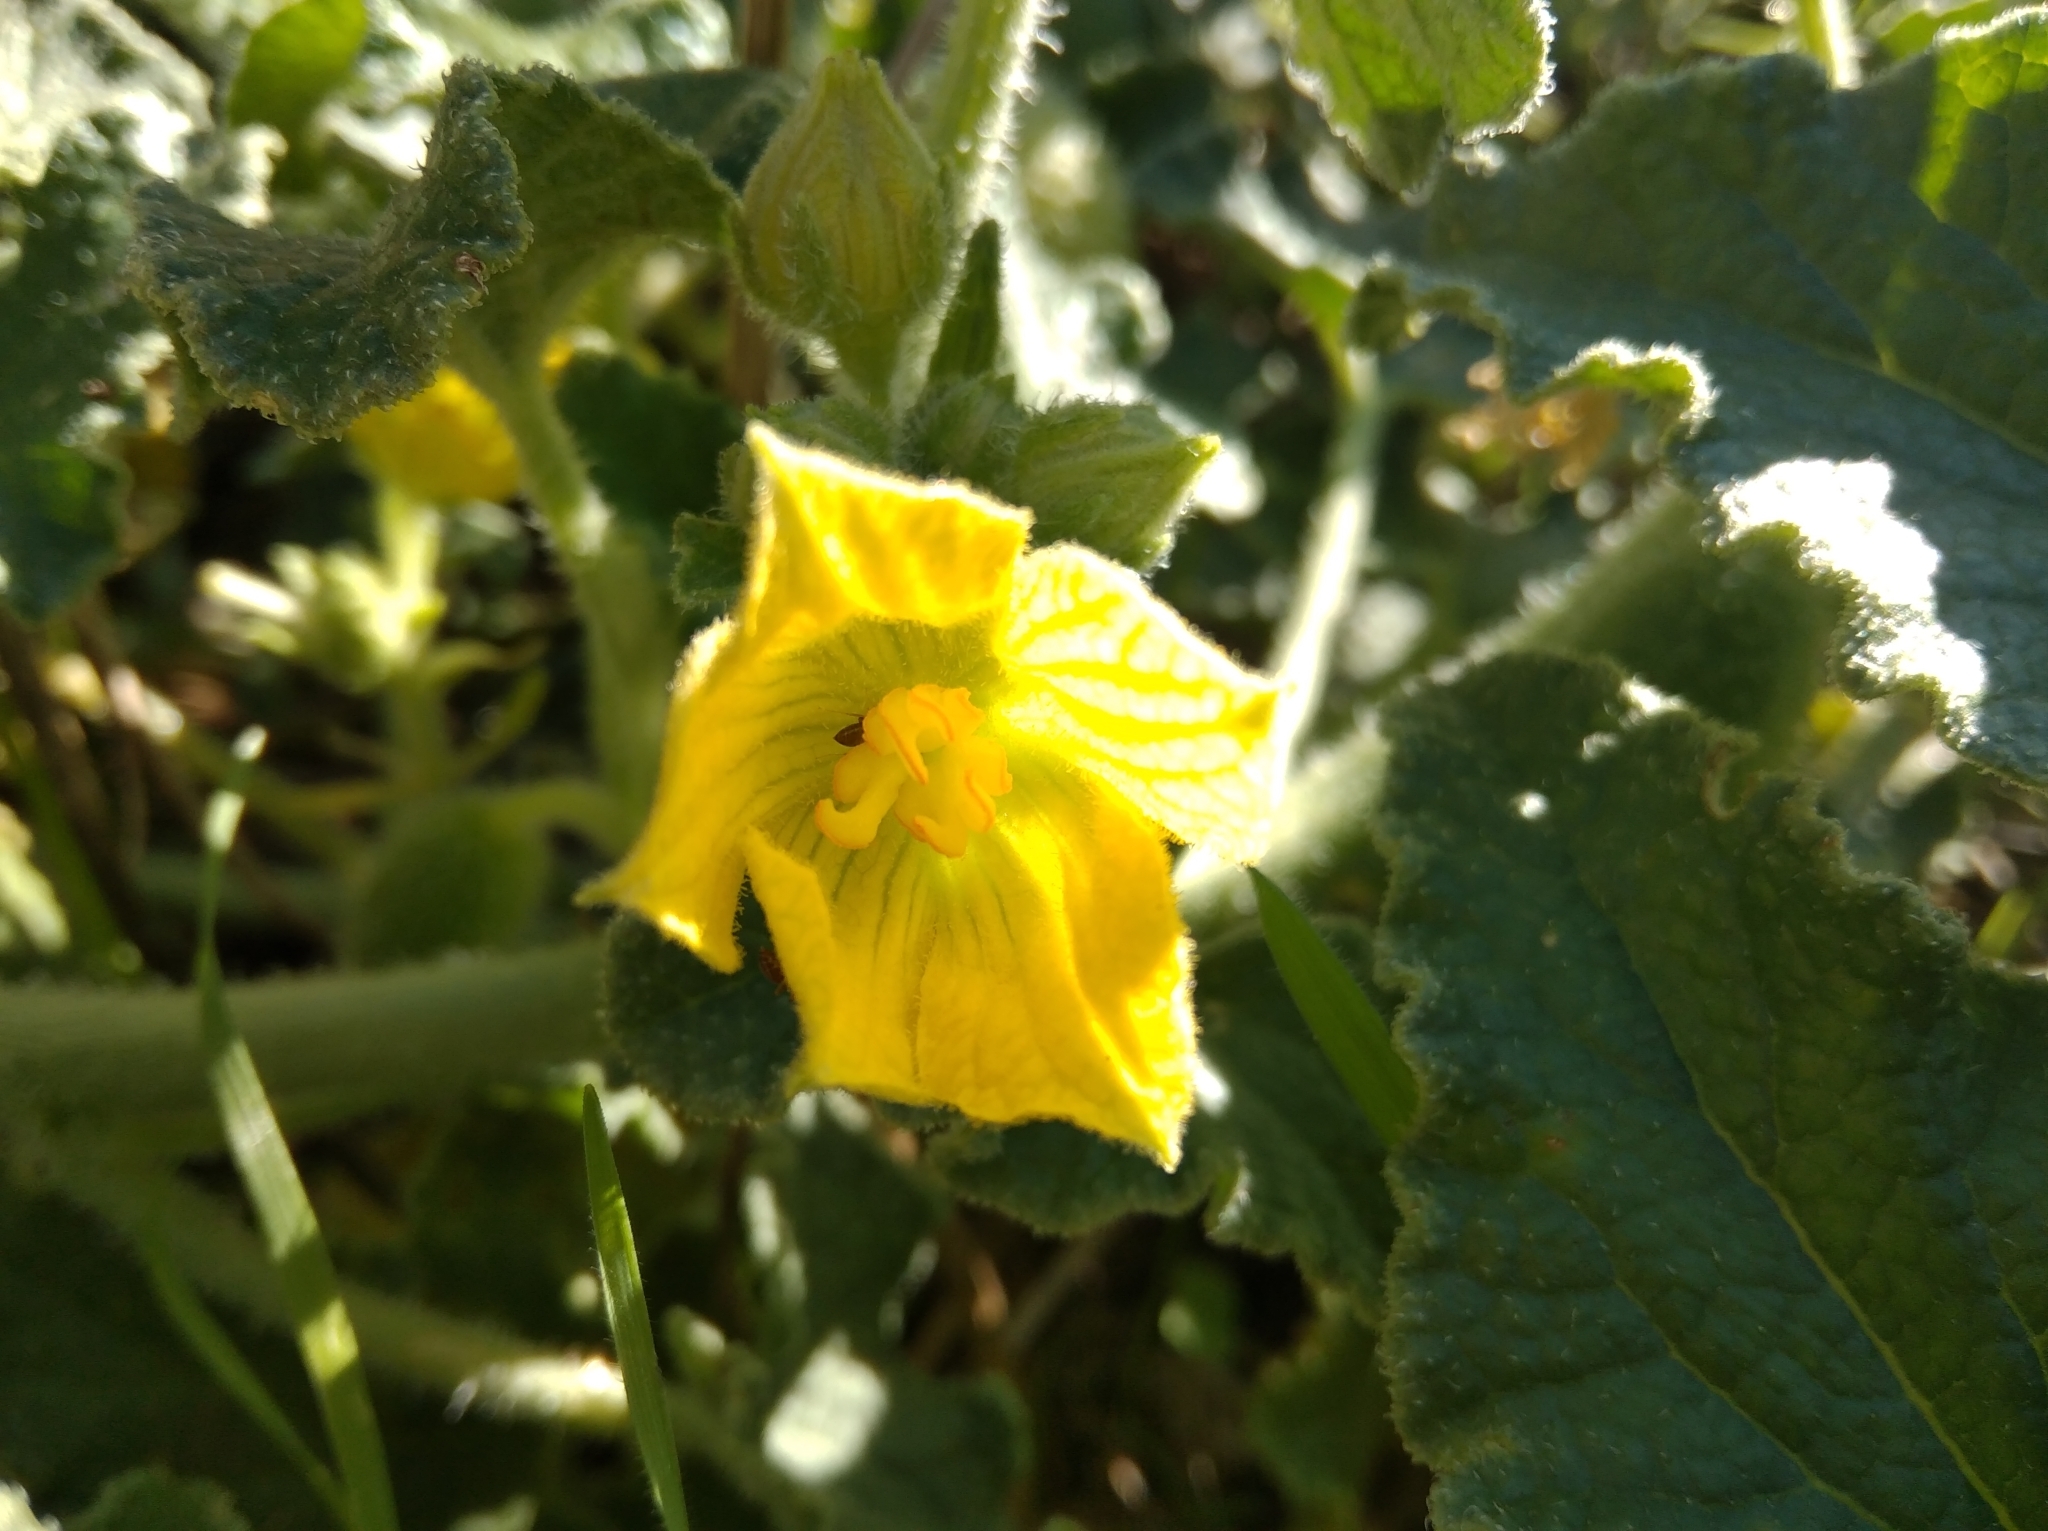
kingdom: Plantae
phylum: Tracheophyta
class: Magnoliopsida
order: Cucurbitales
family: Cucurbitaceae
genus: Ecballium
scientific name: Ecballium elaterium
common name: Squirting cucumber
